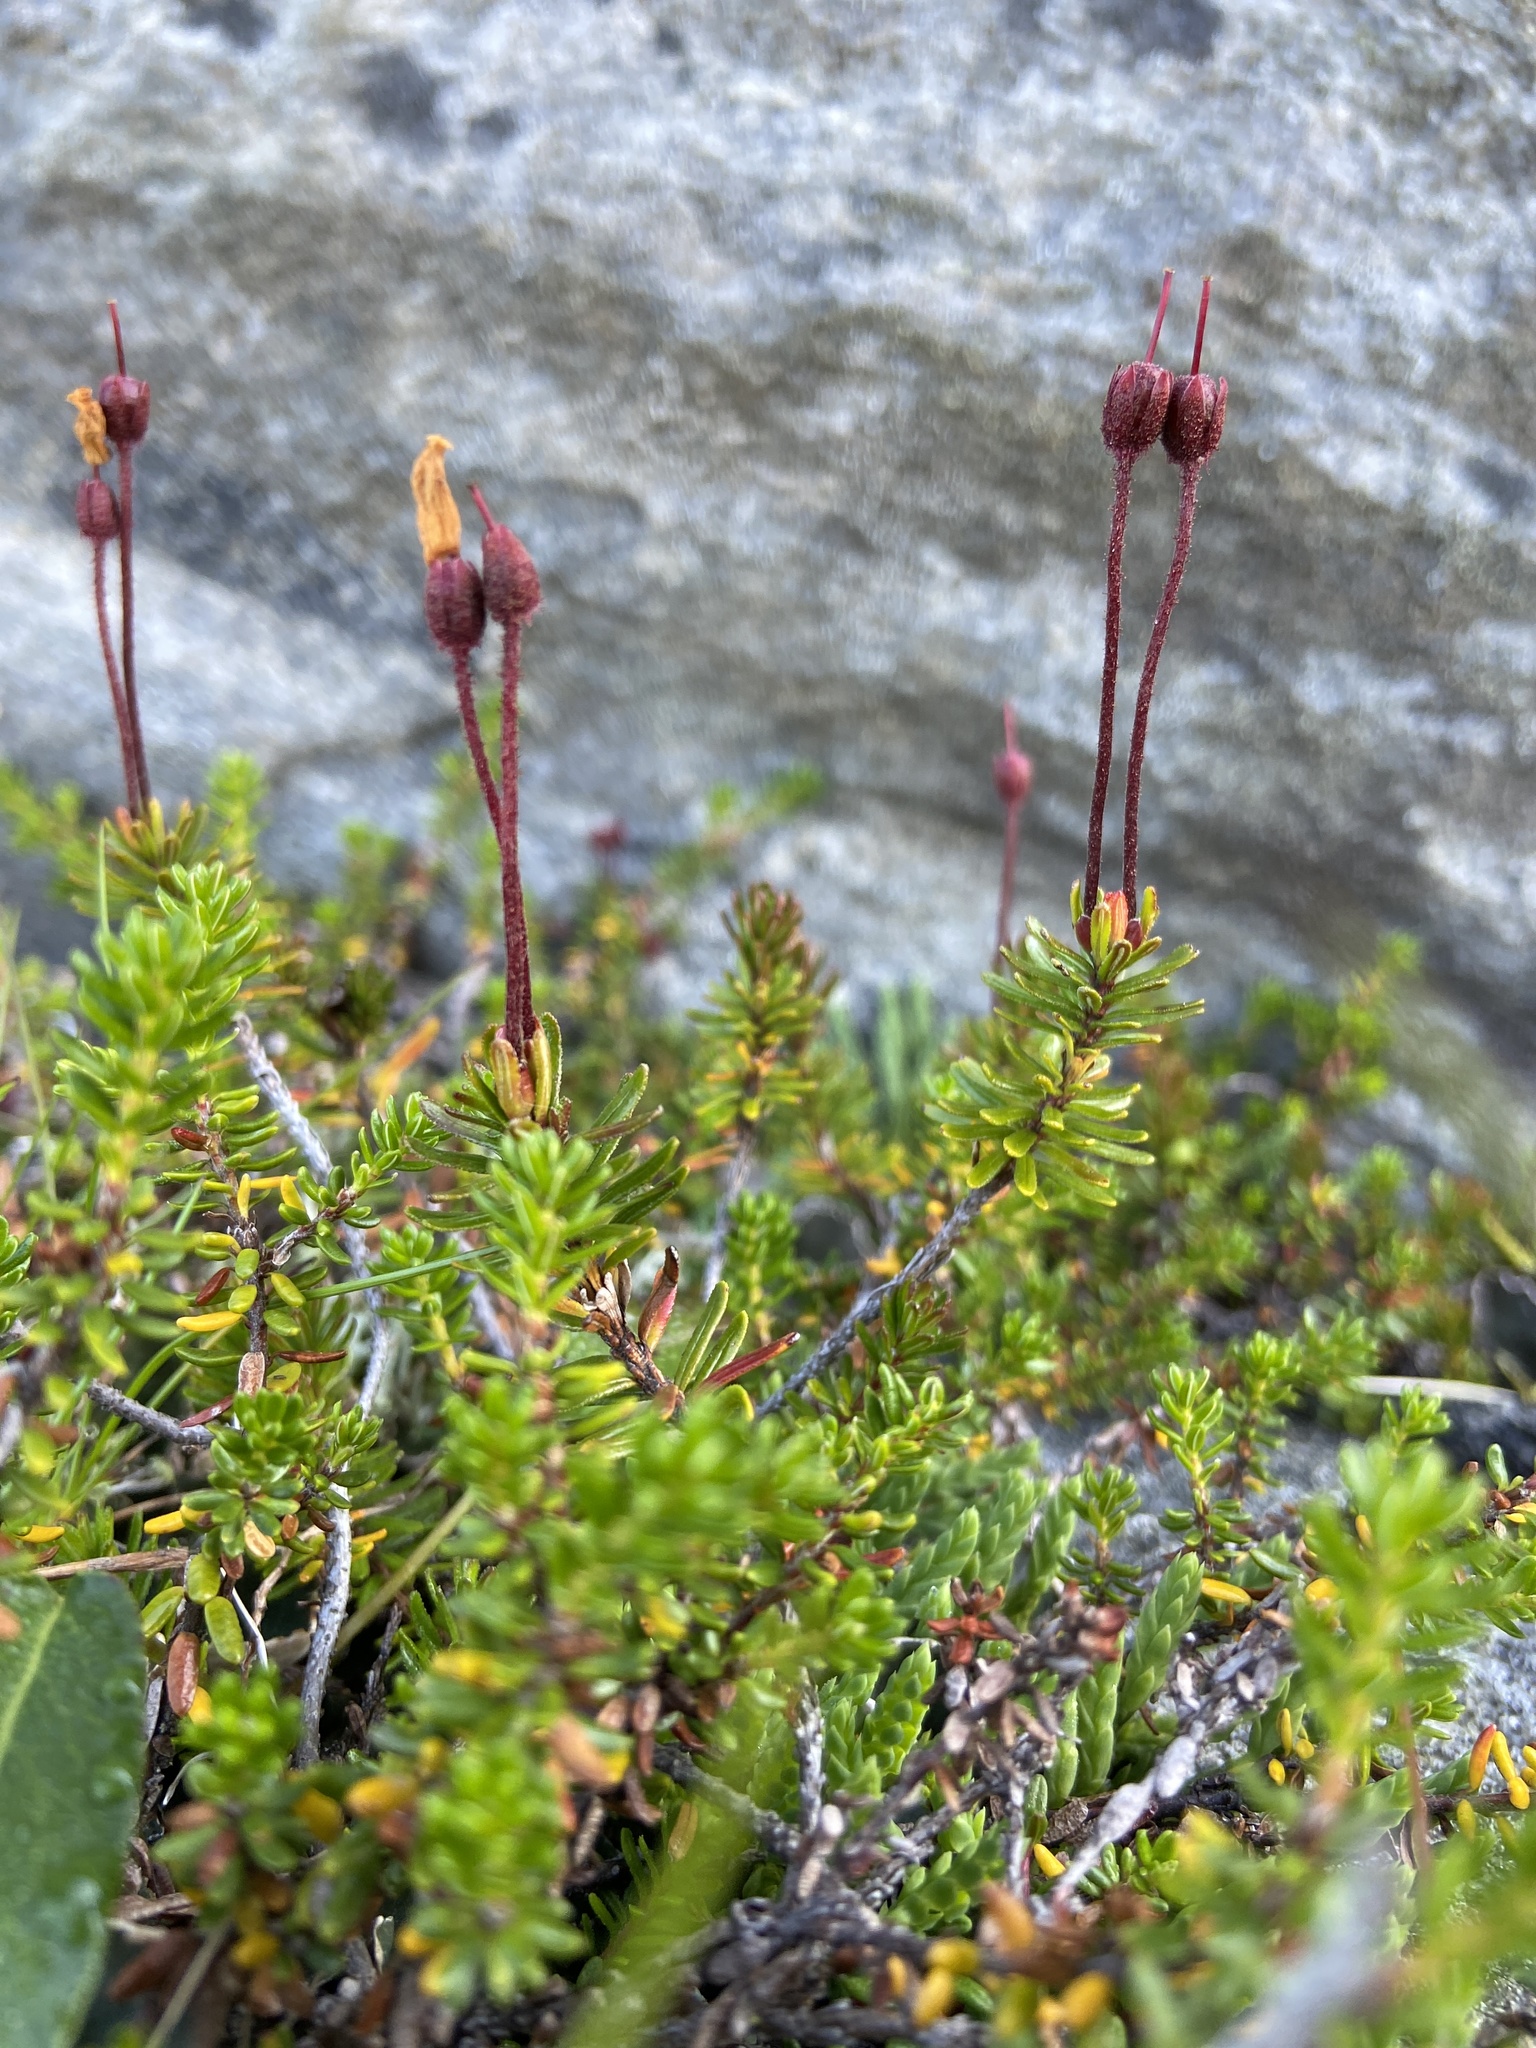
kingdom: Plantae
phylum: Tracheophyta
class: Magnoliopsida
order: Ericales
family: Ericaceae
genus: Phyllodoce
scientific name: Phyllodoce caerulea
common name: Blue heath
